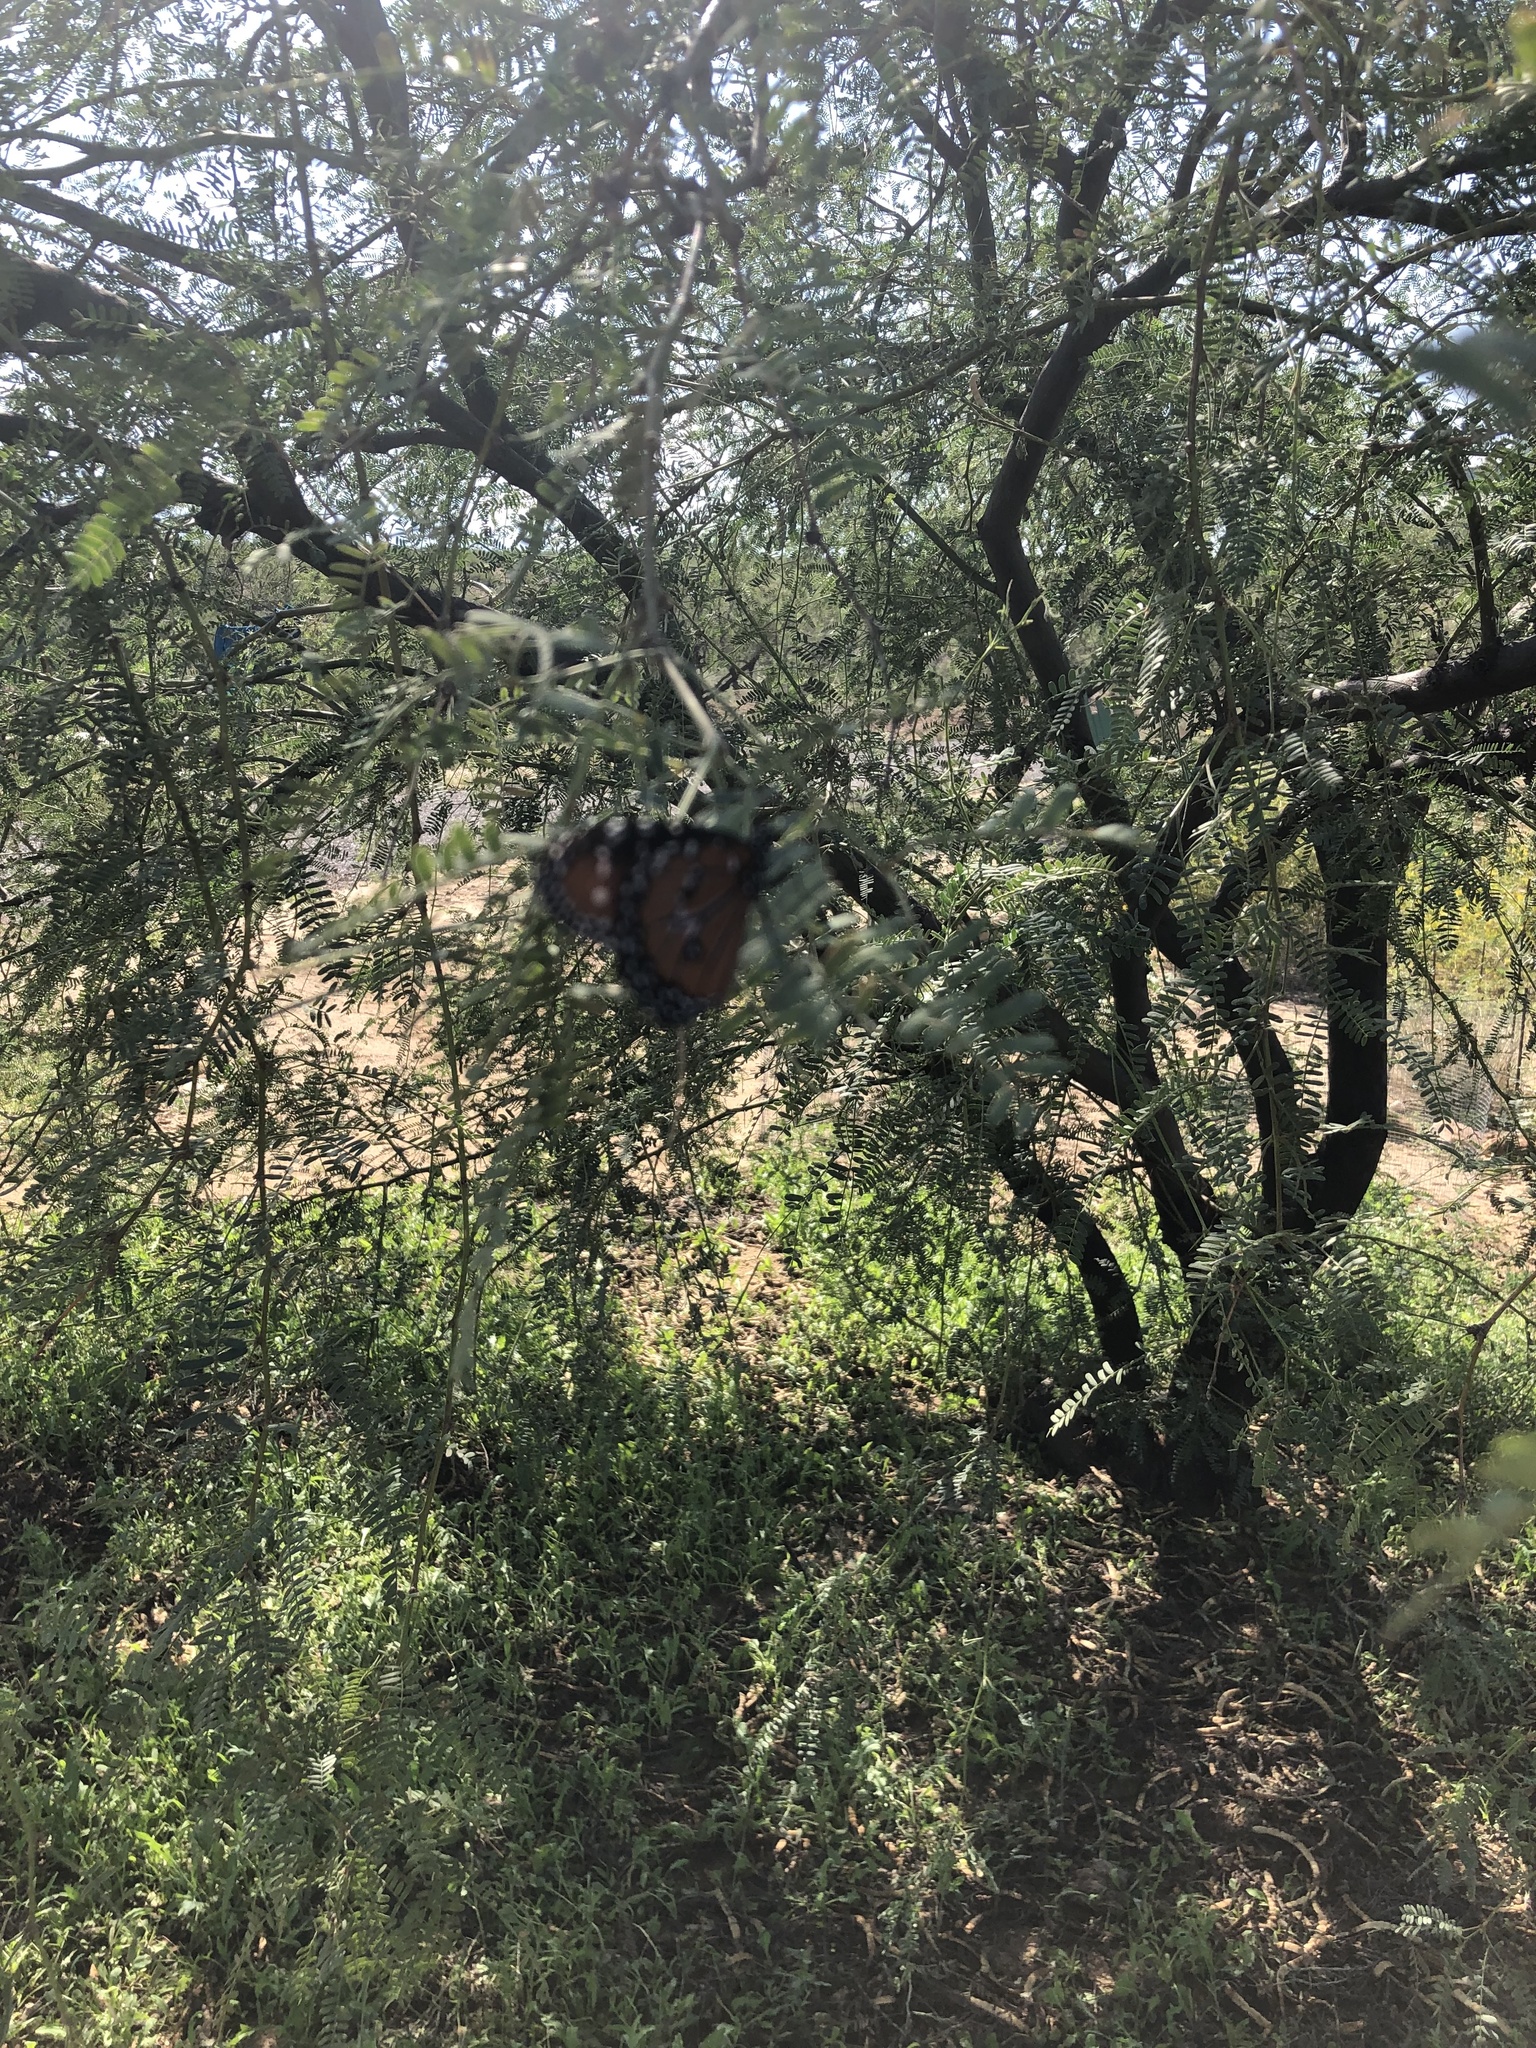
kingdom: Animalia
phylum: Arthropoda
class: Insecta
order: Lepidoptera
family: Nymphalidae
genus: Danaus
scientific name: Danaus gilippus
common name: Queen
